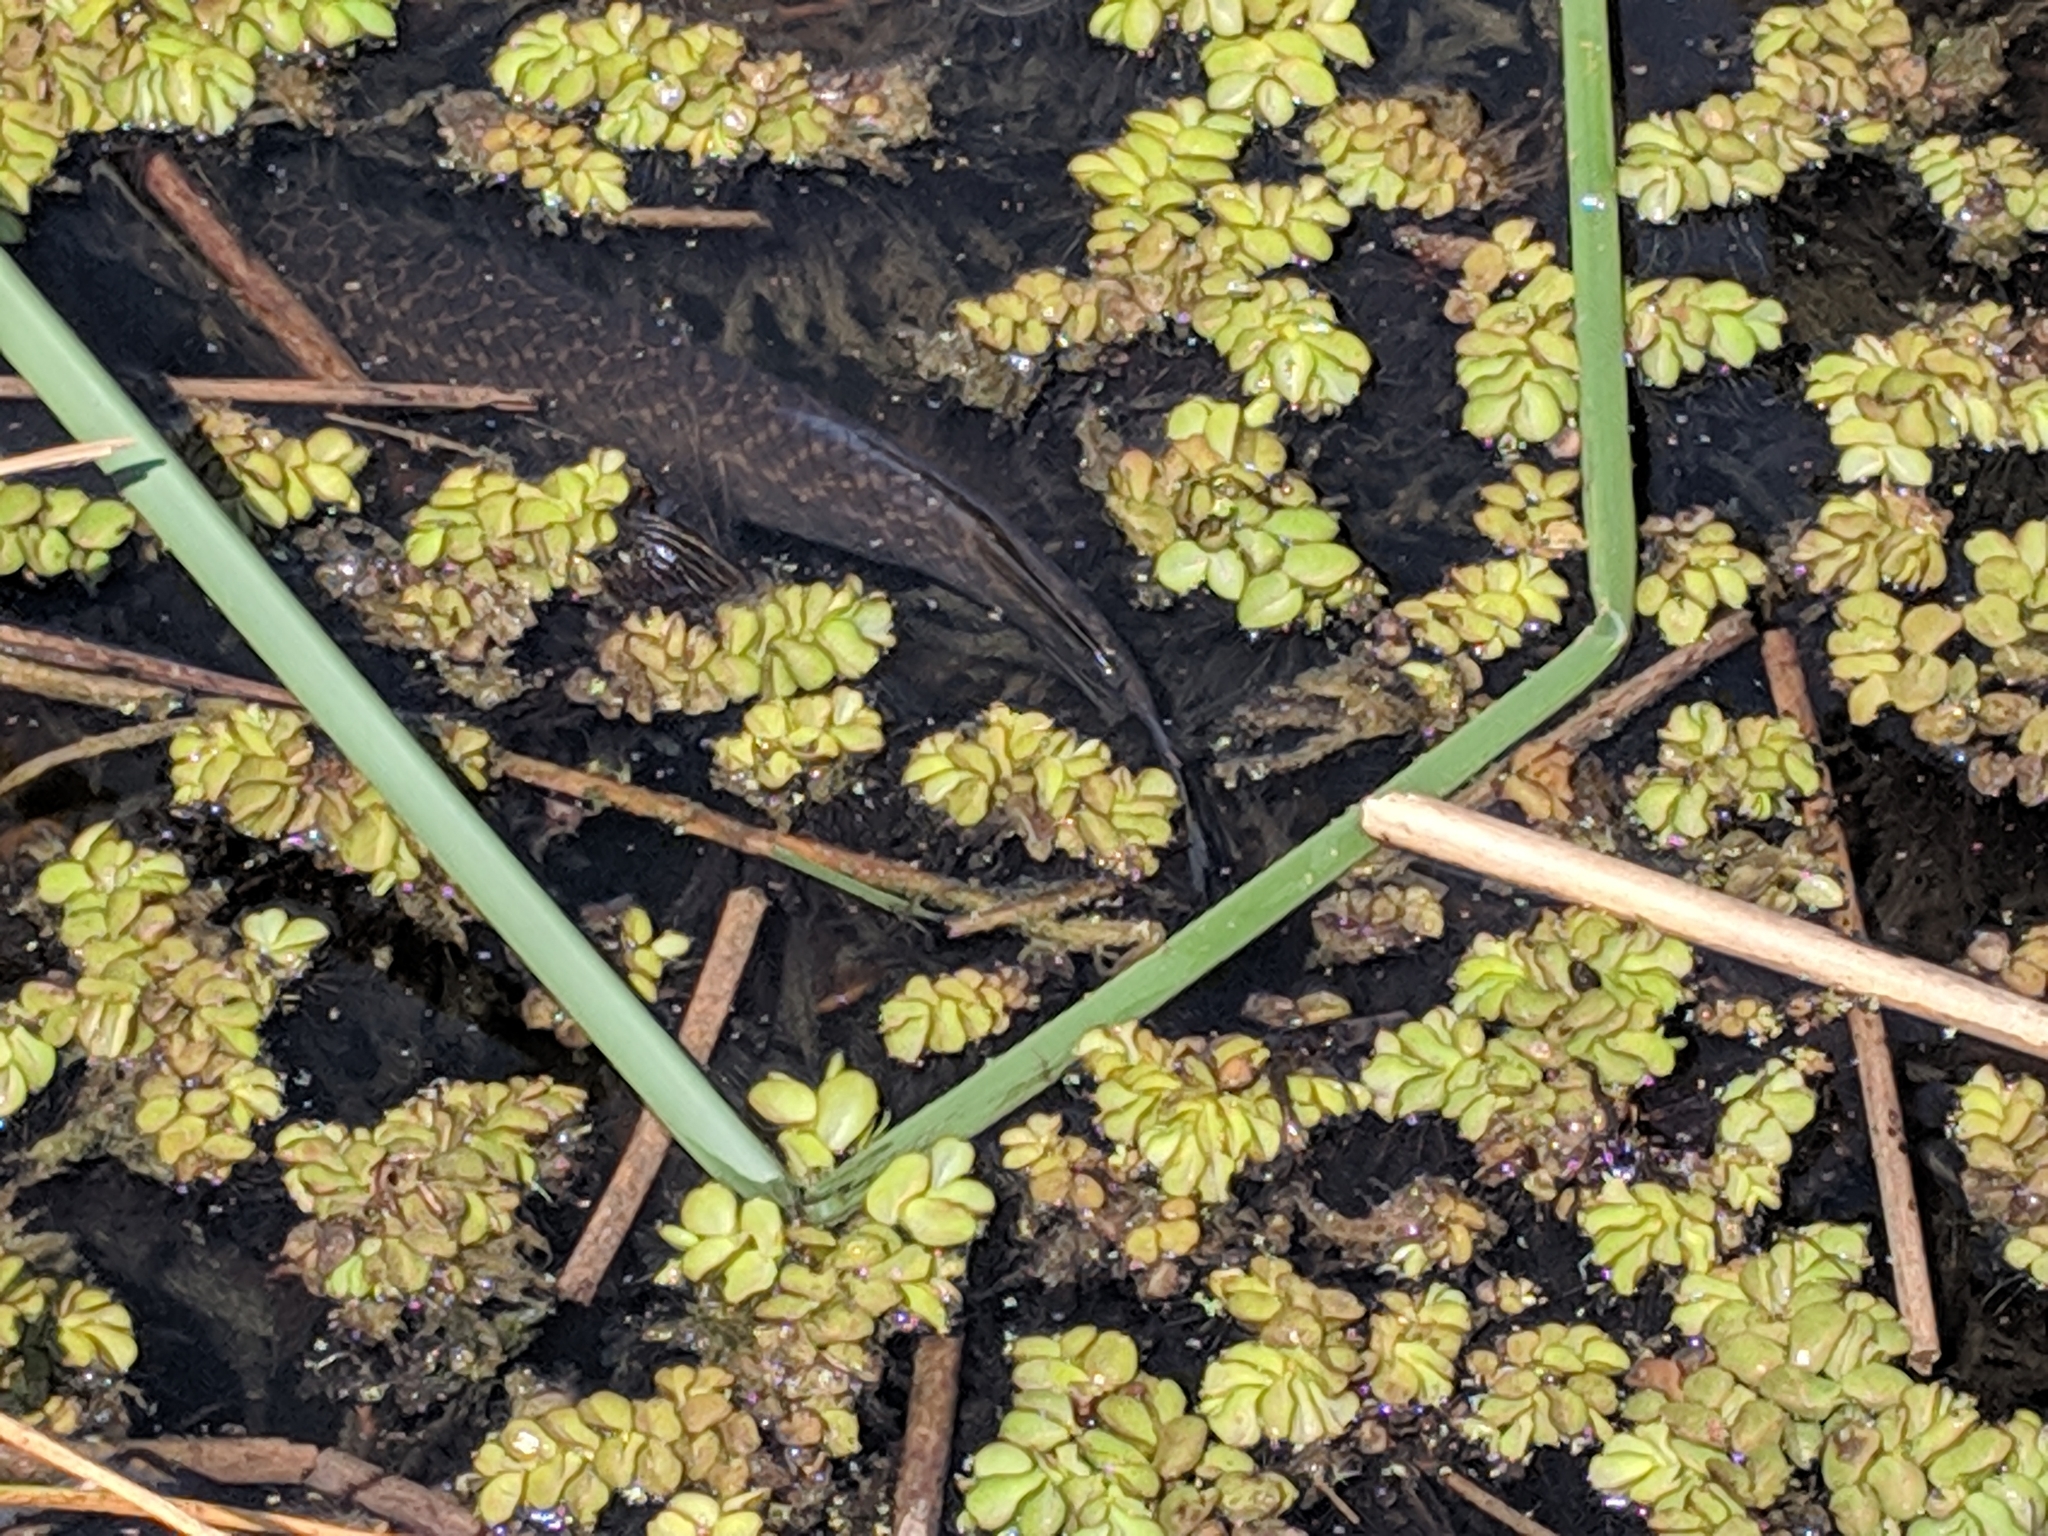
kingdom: Plantae
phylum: Tracheophyta
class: Polypodiopsida
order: Salviniales
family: Salviniaceae
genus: Salvinia
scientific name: Salvinia molesta
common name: Kariba weed
